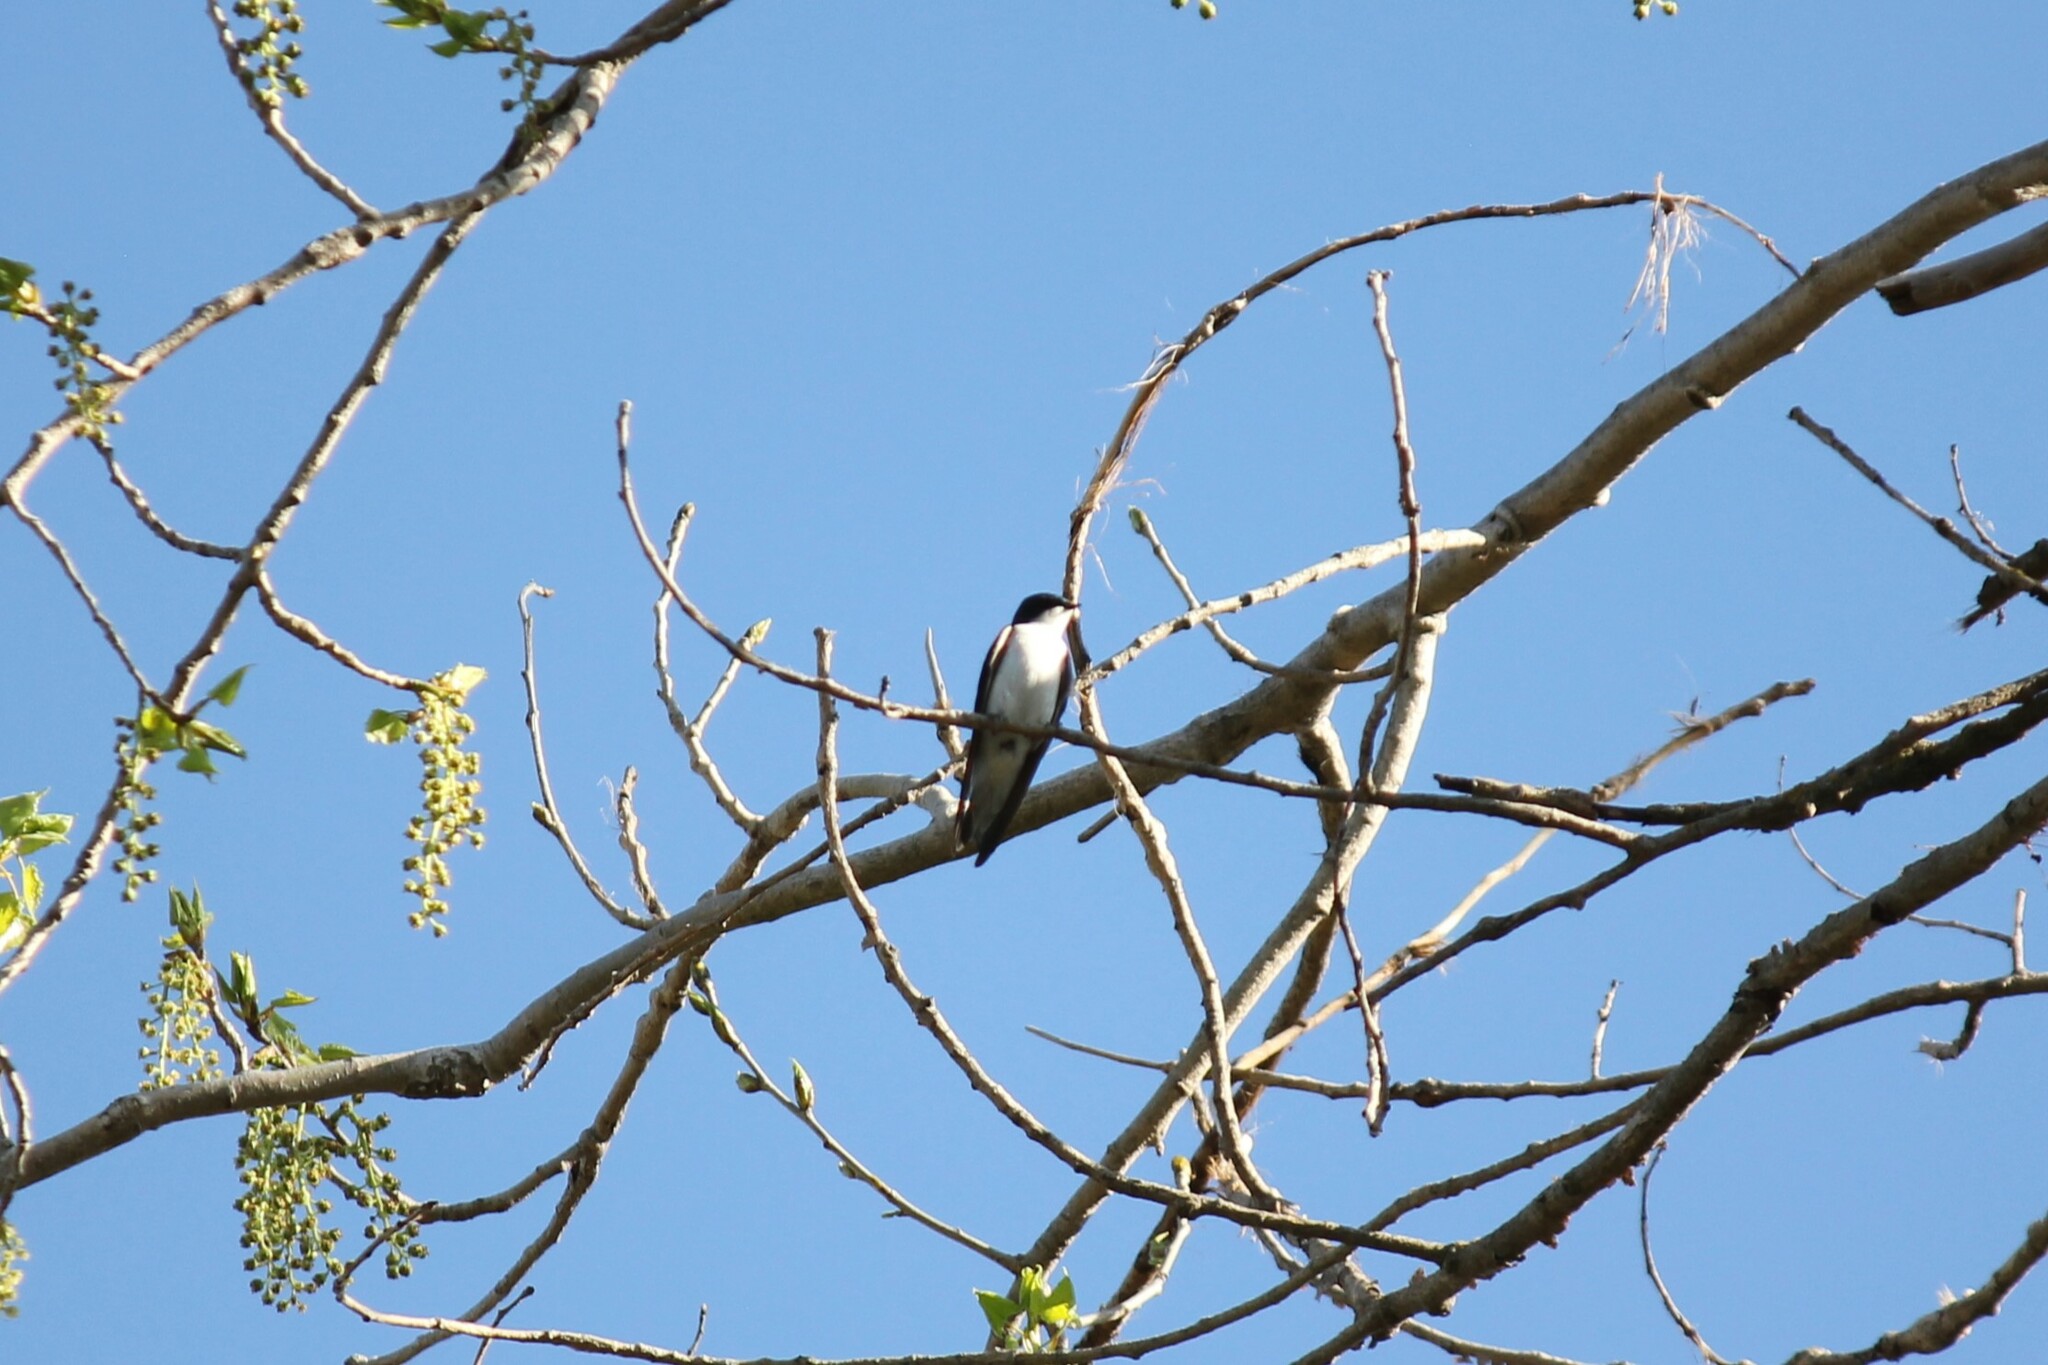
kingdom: Animalia
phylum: Chordata
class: Aves
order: Passeriformes
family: Hirundinidae
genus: Tachycineta
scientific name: Tachycineta bicolor
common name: Tree swallow
